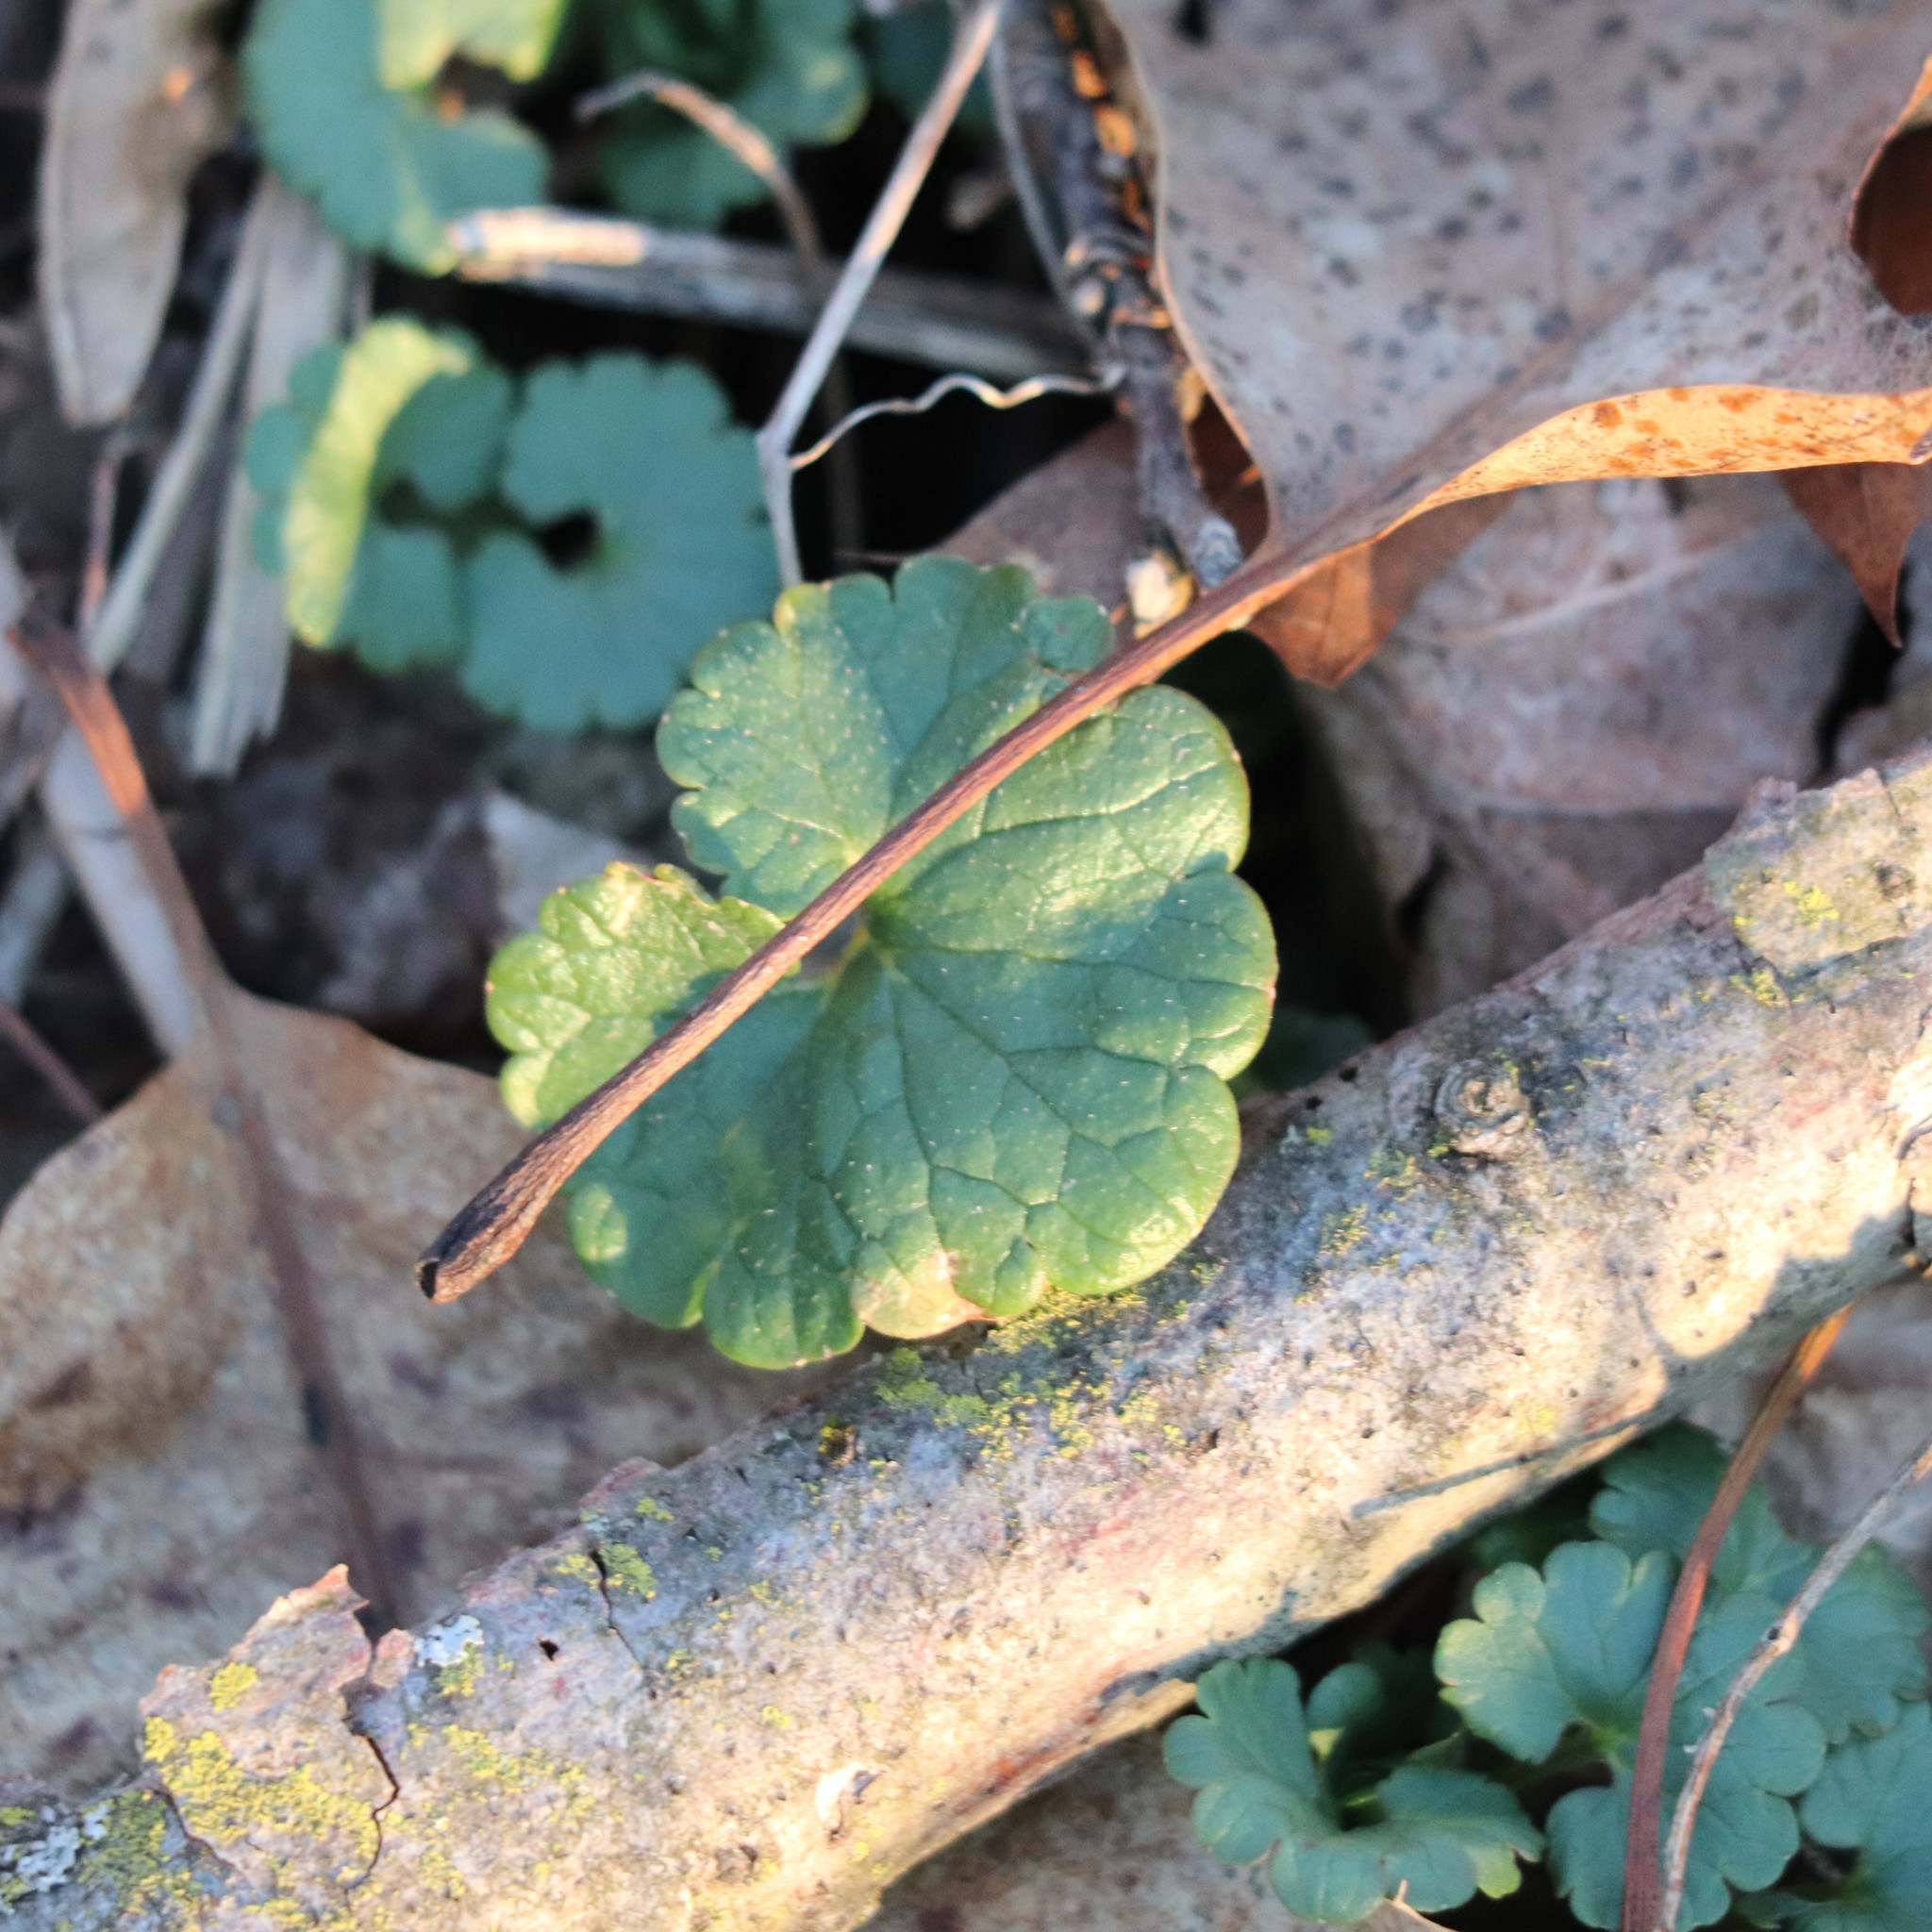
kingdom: Plantae
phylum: Tracheophyta
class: Magnoliopsida
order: Lamiales
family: Lamiaceae
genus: Glechoma
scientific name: Glechoma hederacea
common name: Ground ivy
